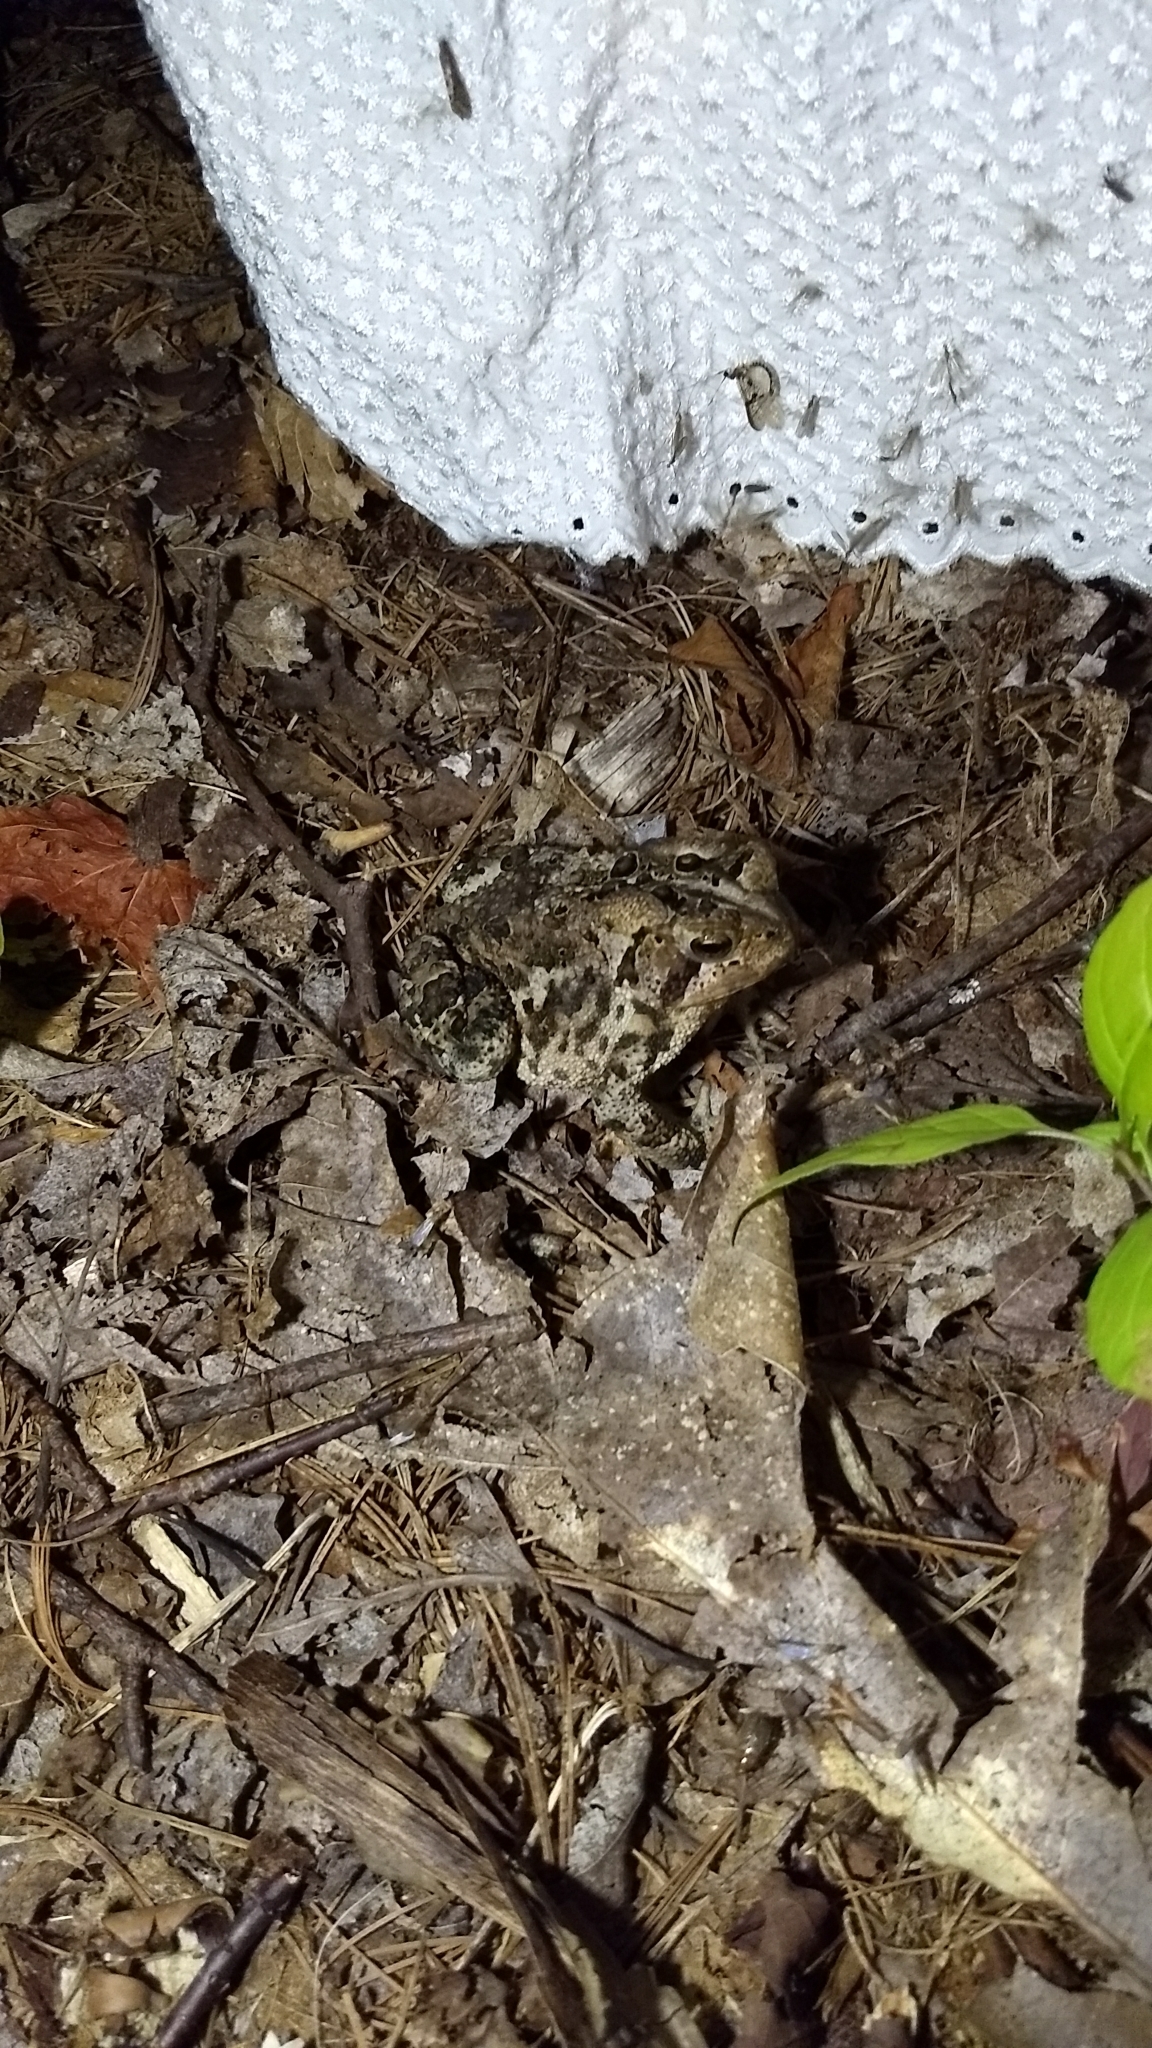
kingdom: Animalia
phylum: Chordata
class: Amphibia
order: Anura
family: Bufonidae
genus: Anaxyrus
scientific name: Anaxyrus americanus
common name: American toad
